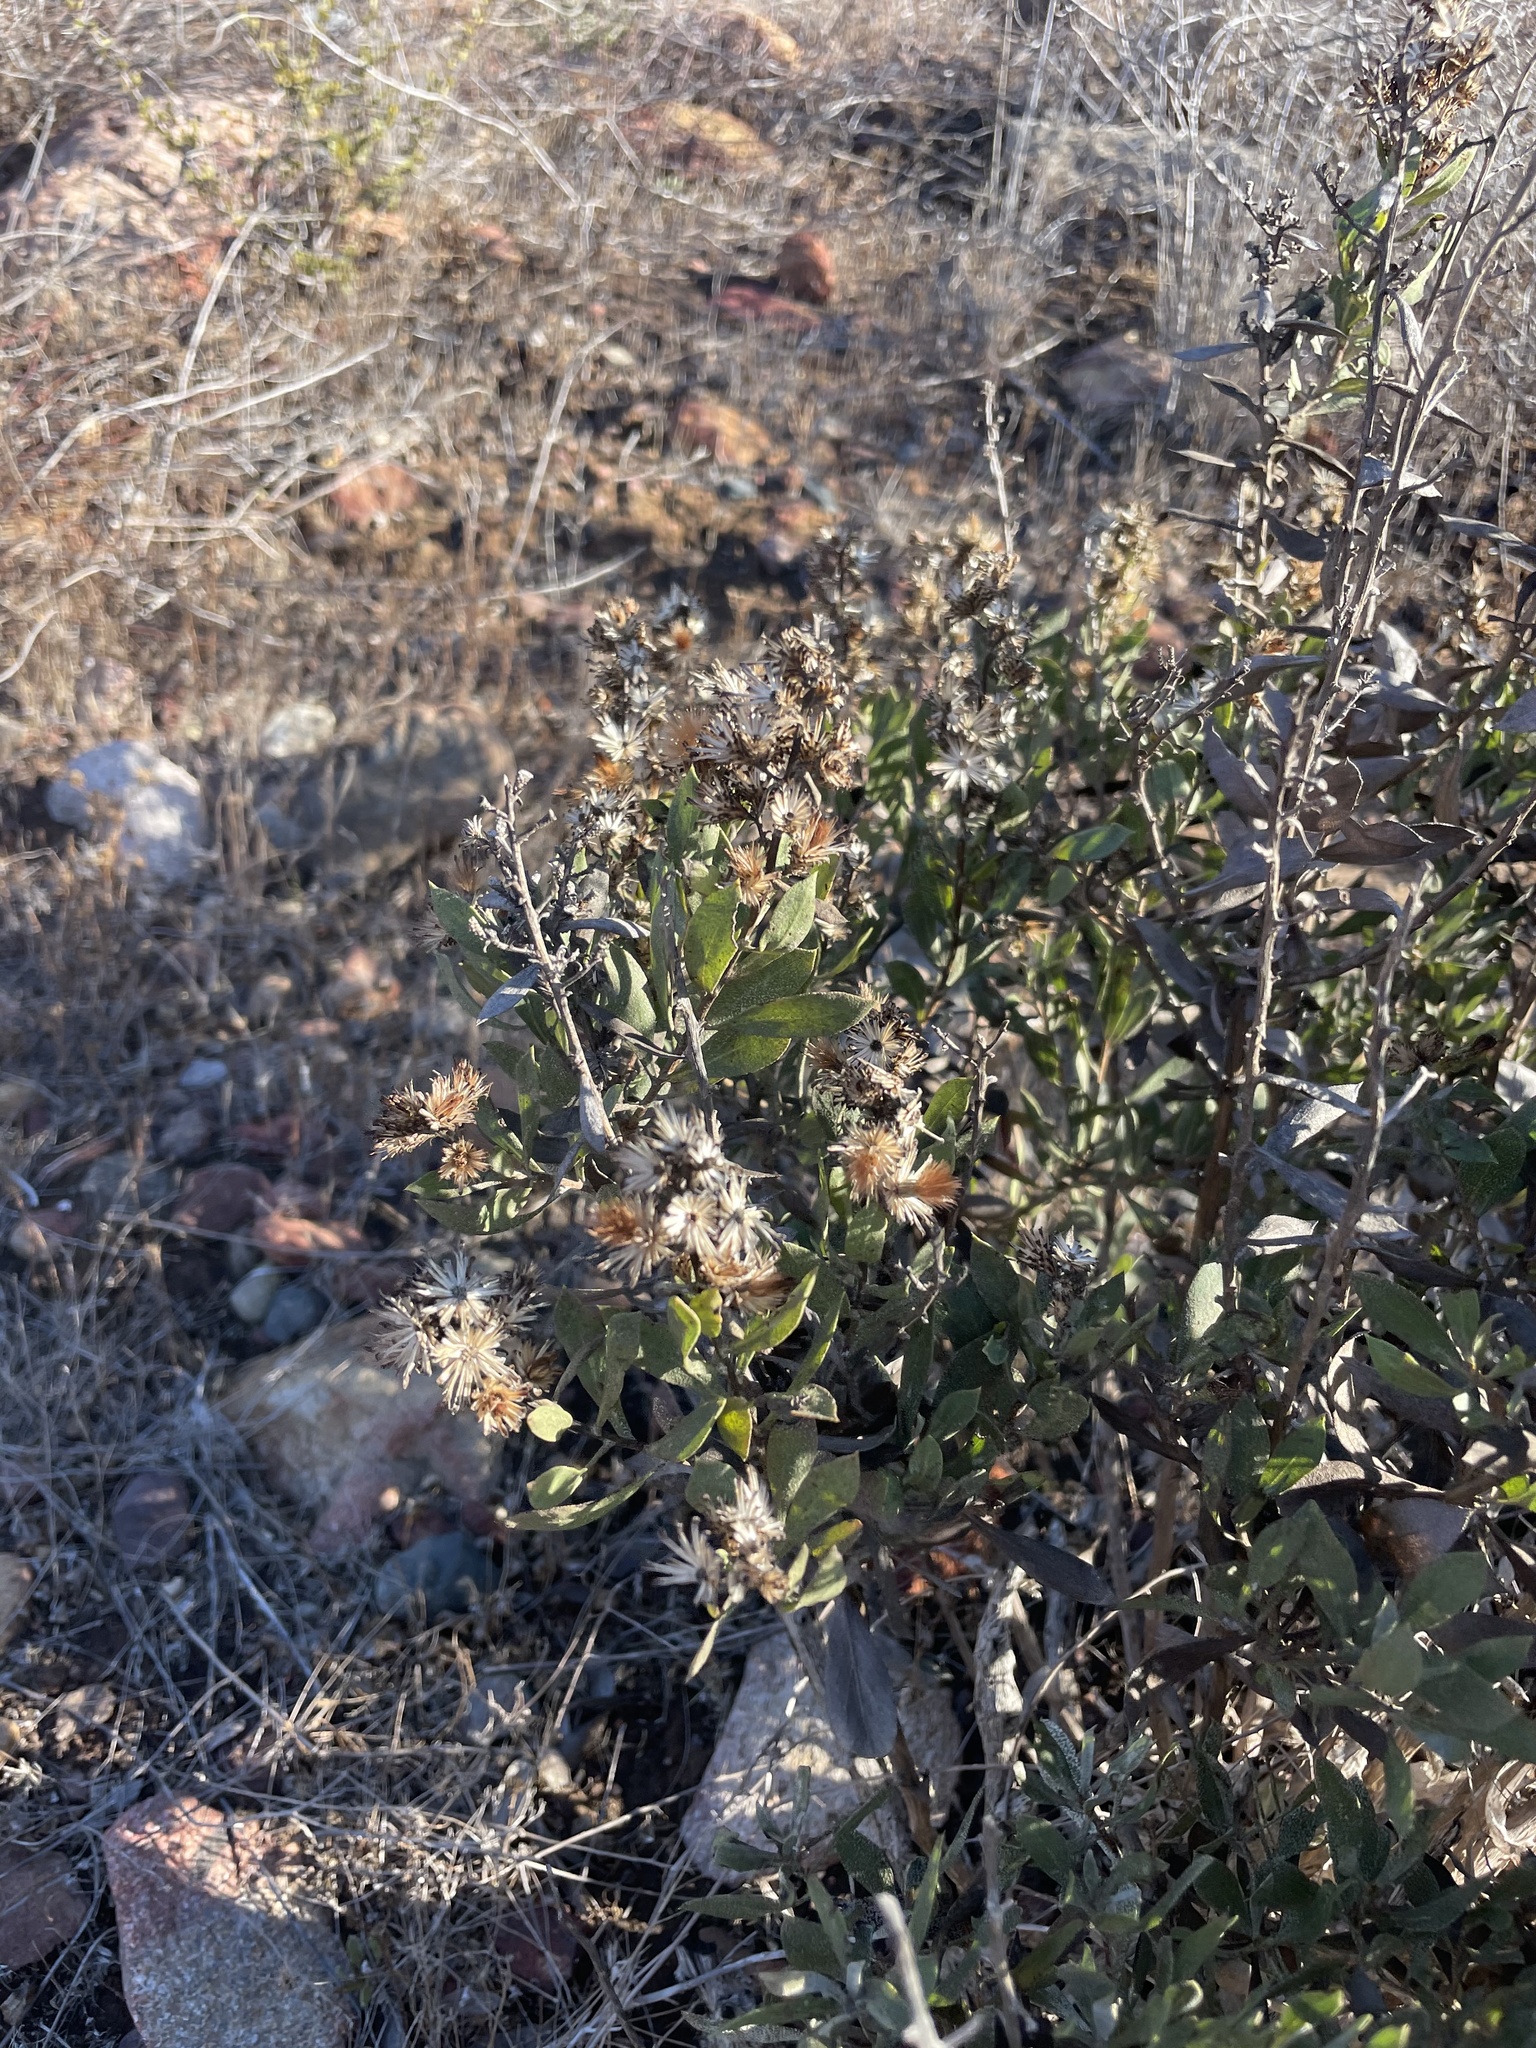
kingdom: Plantae
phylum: Tracheophyta
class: Magnoliopsida
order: Asterales
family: Asteraceae
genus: Hazardia
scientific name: Hazardia orcuttii
